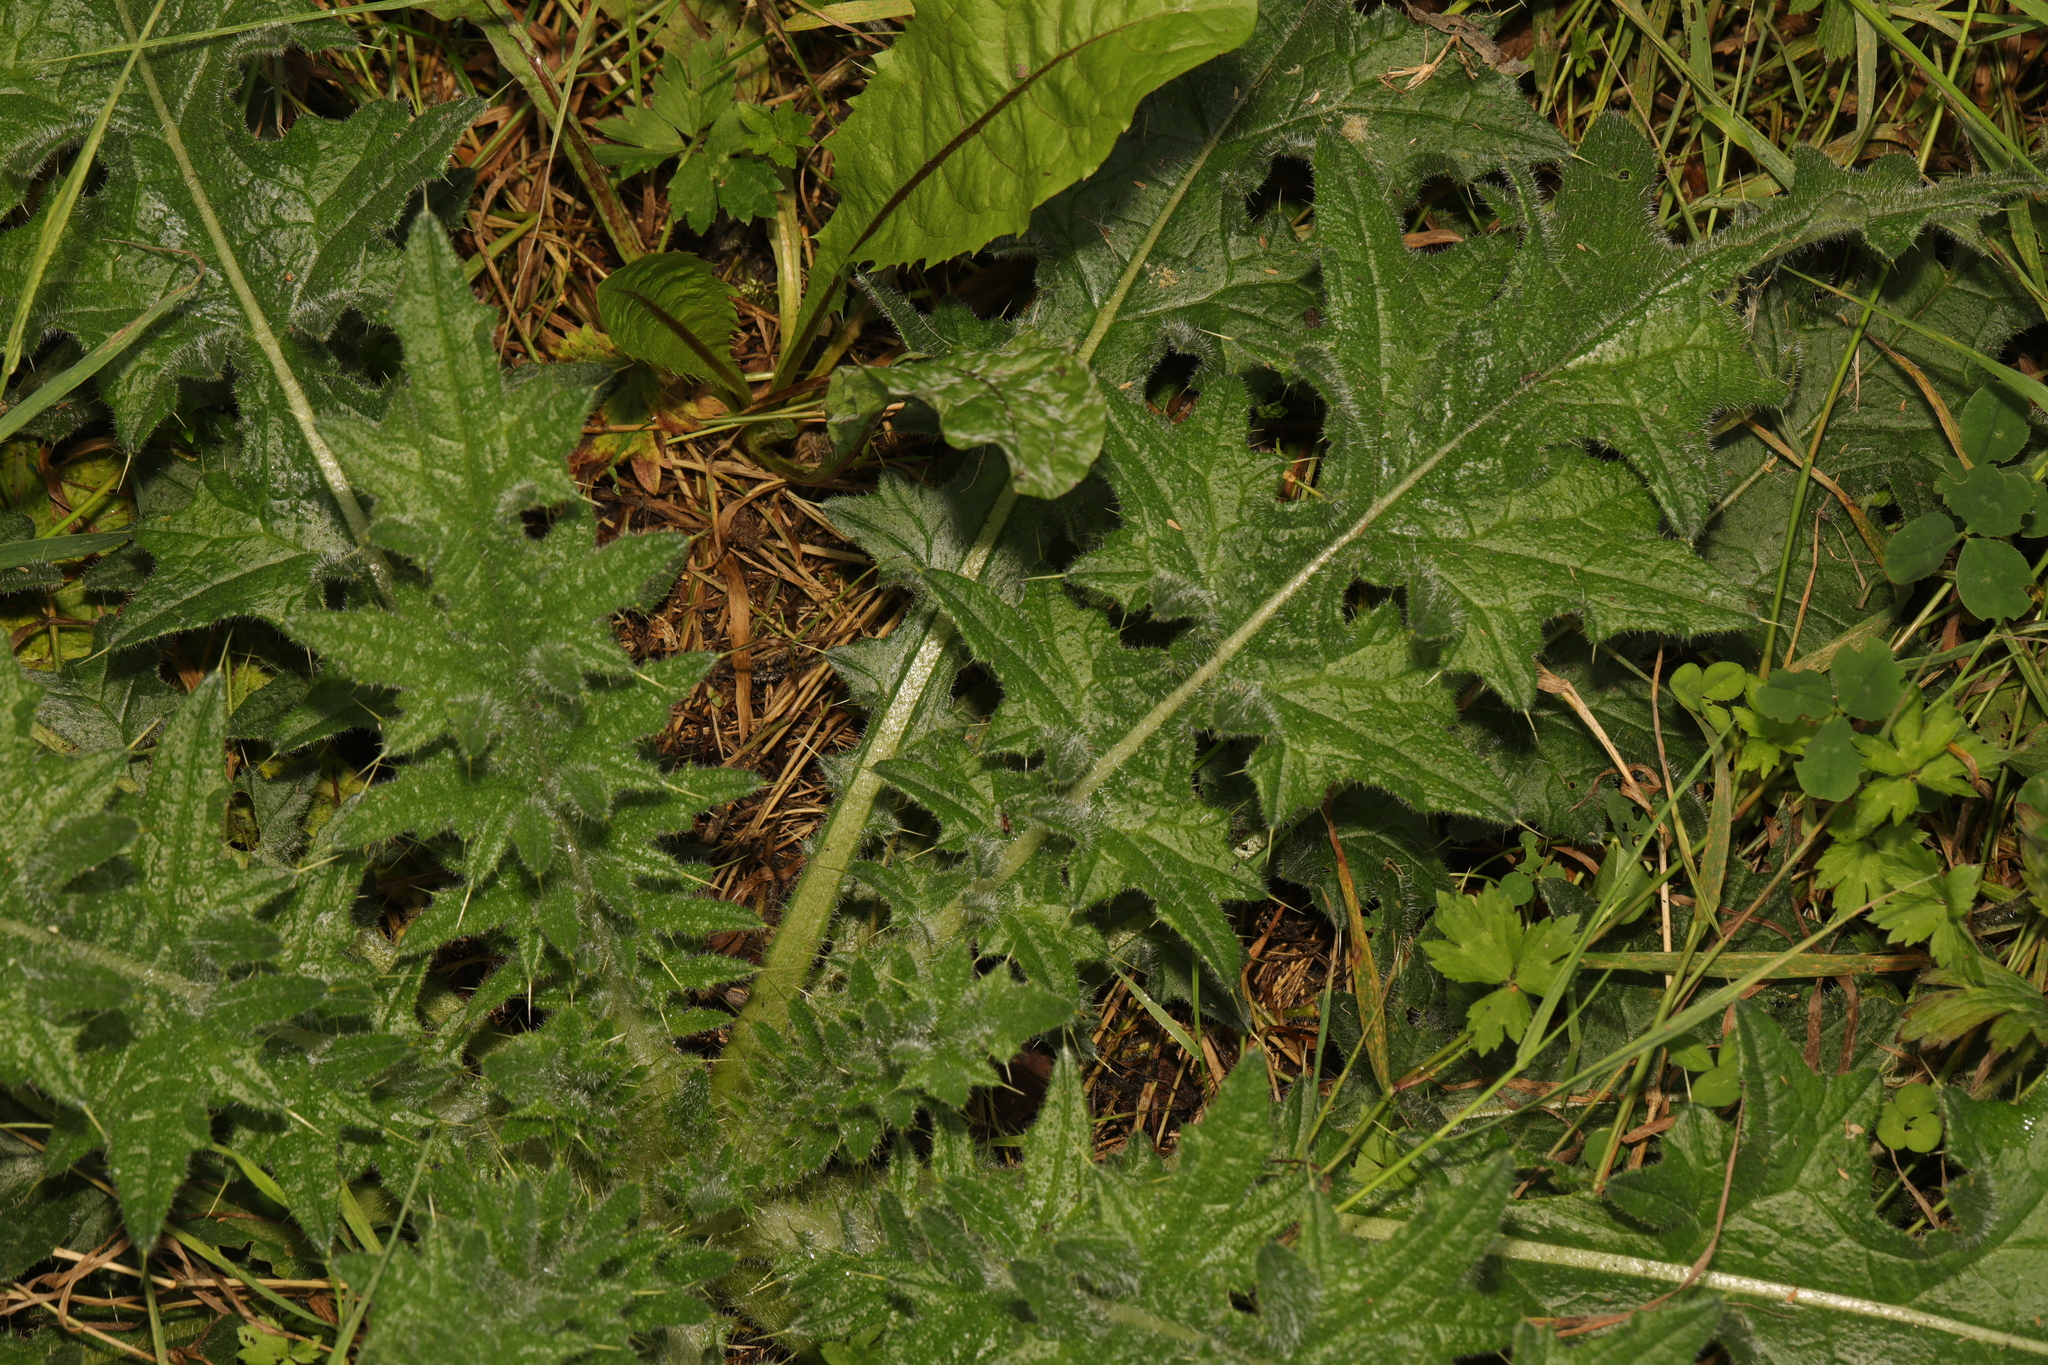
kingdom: Plantae
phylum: Tracheophyta
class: Magnoliopsida
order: Asterales
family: Asteraceae
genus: Cirsium
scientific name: Cirsium vulgare
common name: Bull thistle
